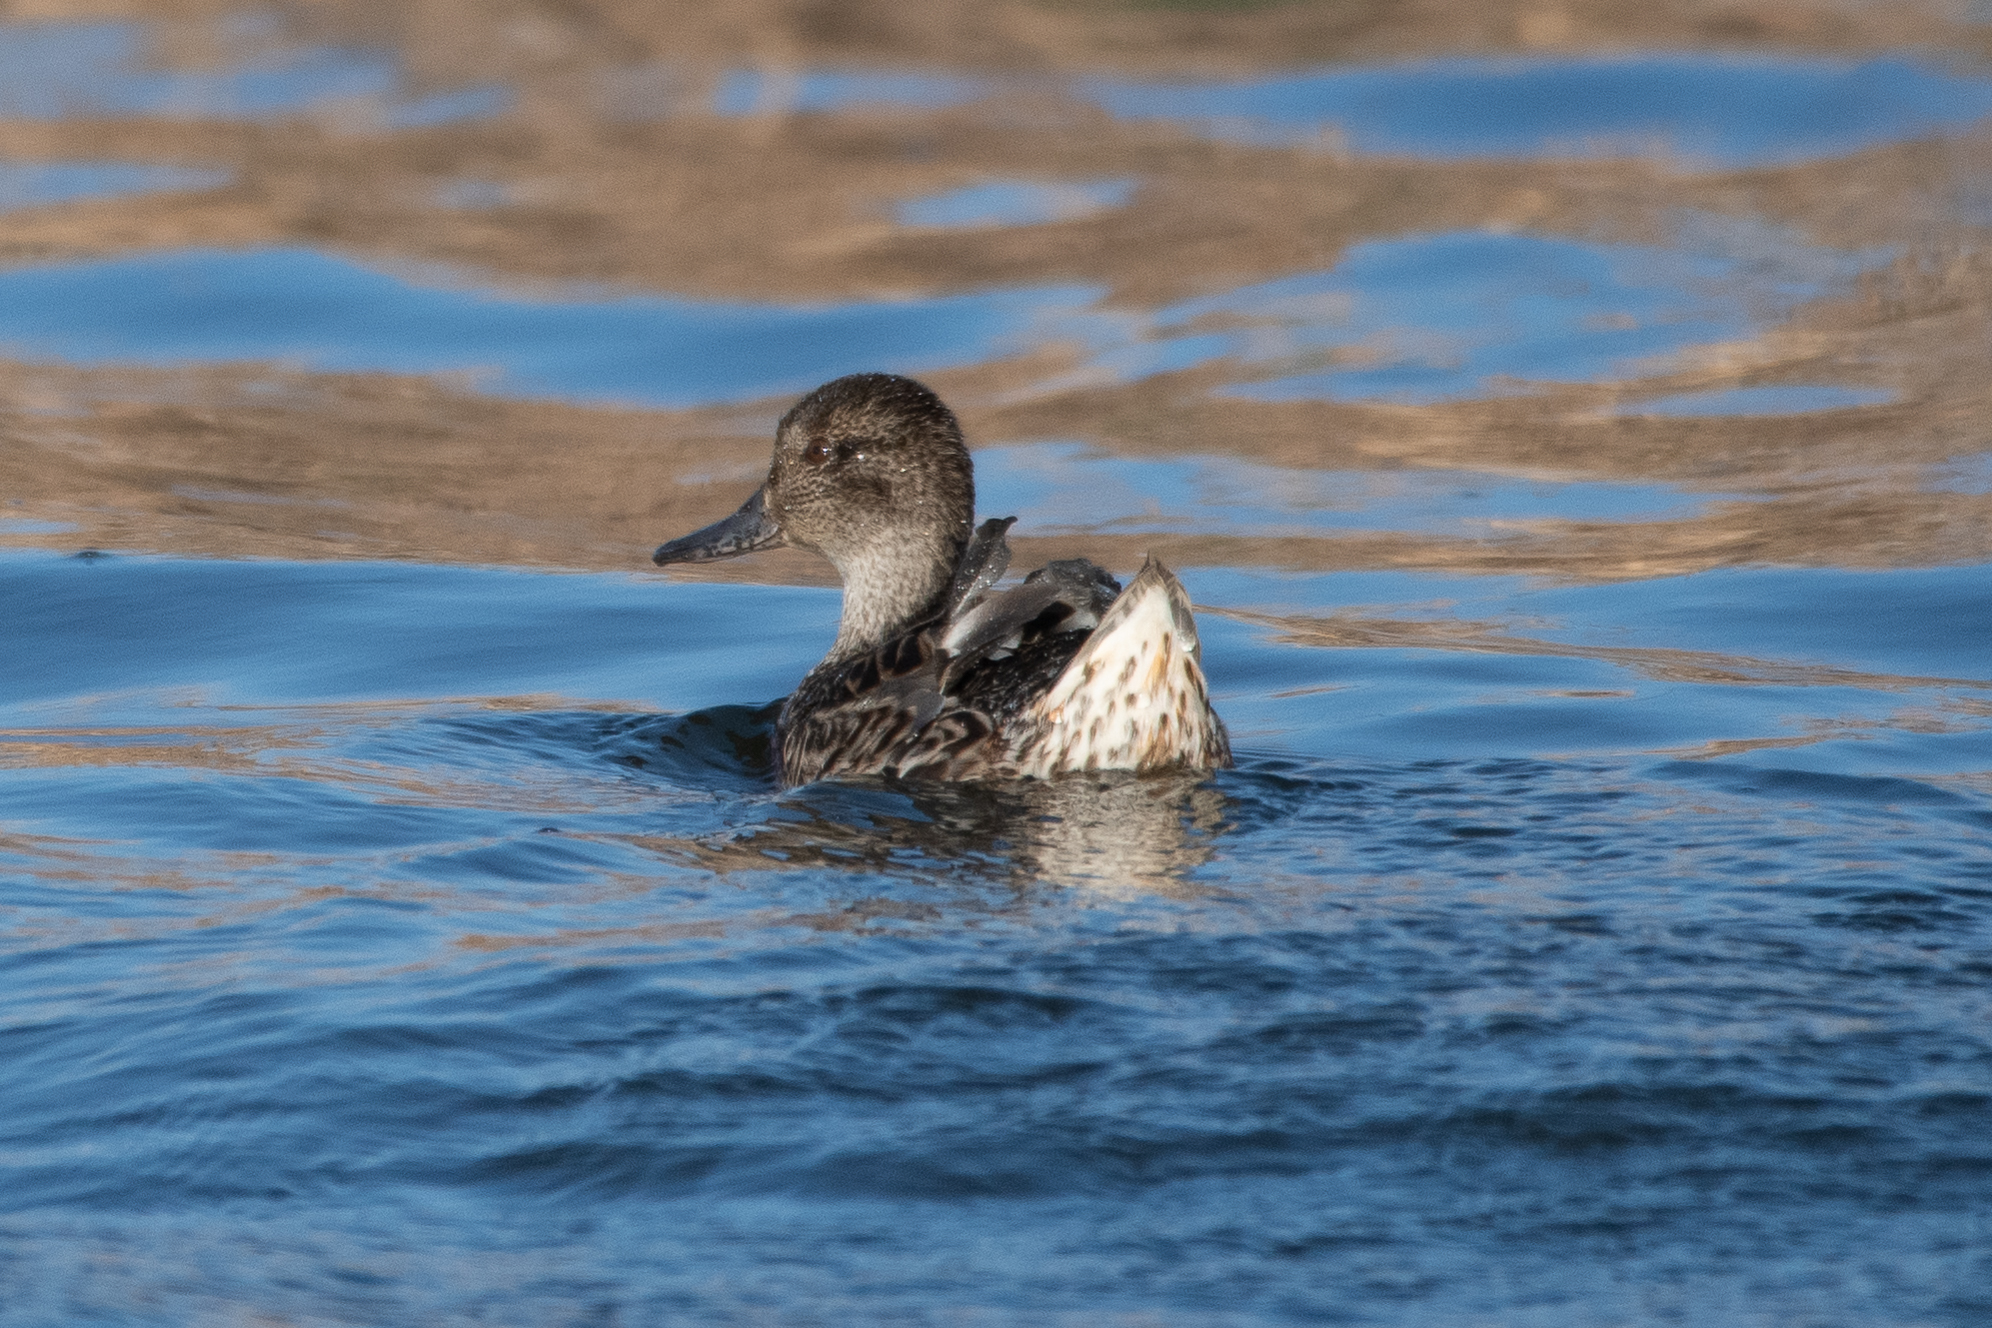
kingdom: Animalia
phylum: Chordata
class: Aves
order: Anseriformes
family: Anatidae
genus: Anas
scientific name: Anas crecca
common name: Eurasian teal
